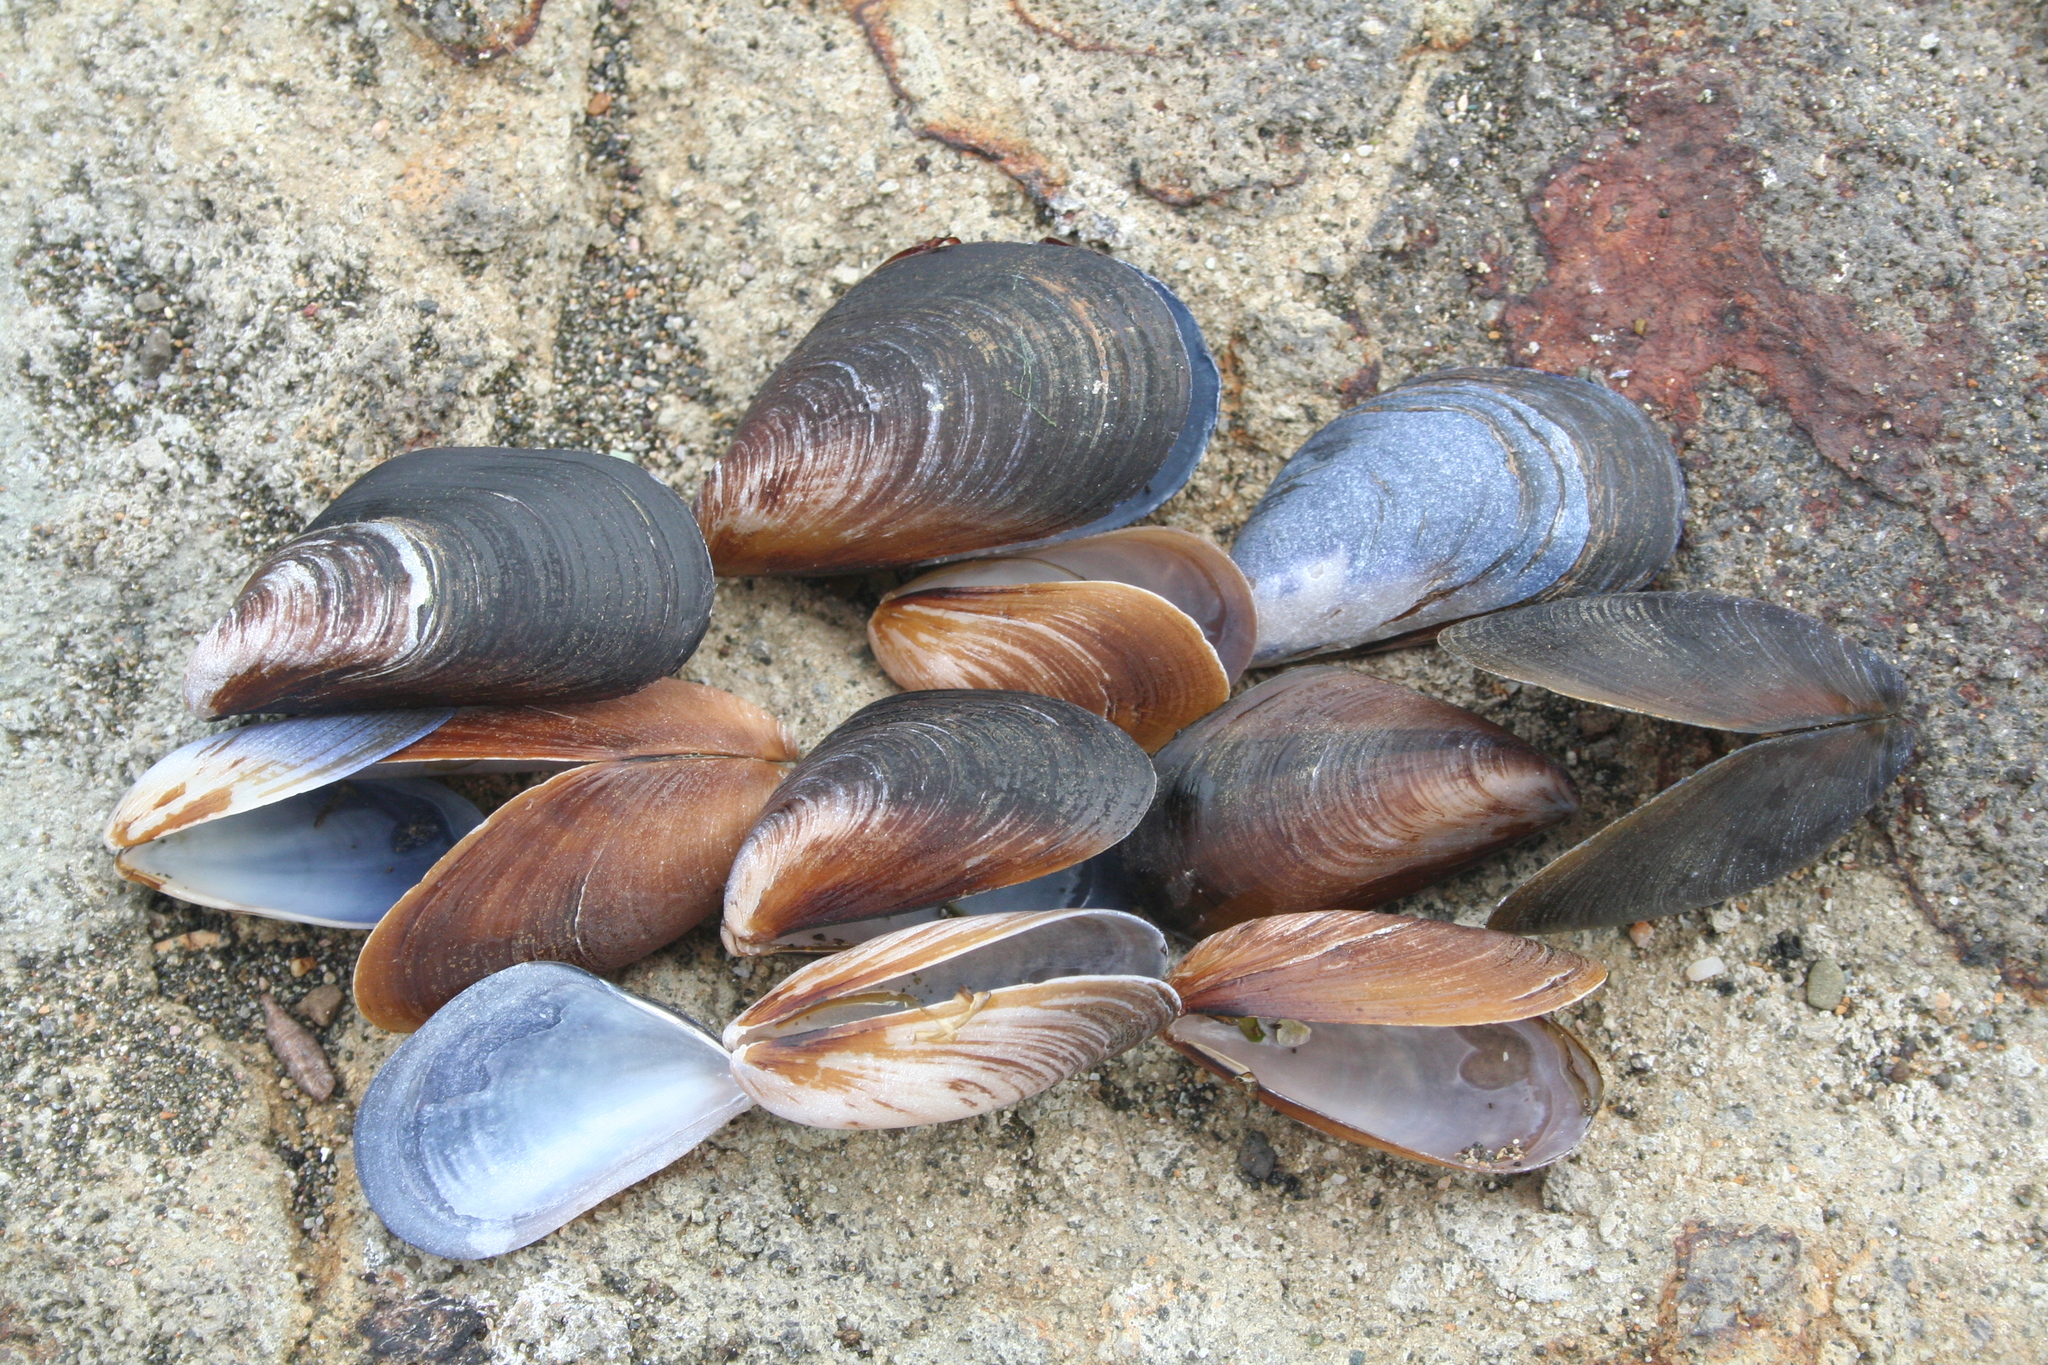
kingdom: Animalia
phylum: Mollusca
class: Bivalvia
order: Mytilida
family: Mytilidae
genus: Mytilus
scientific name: Mytilus galloprovincialis
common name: Mediterranean mussel
